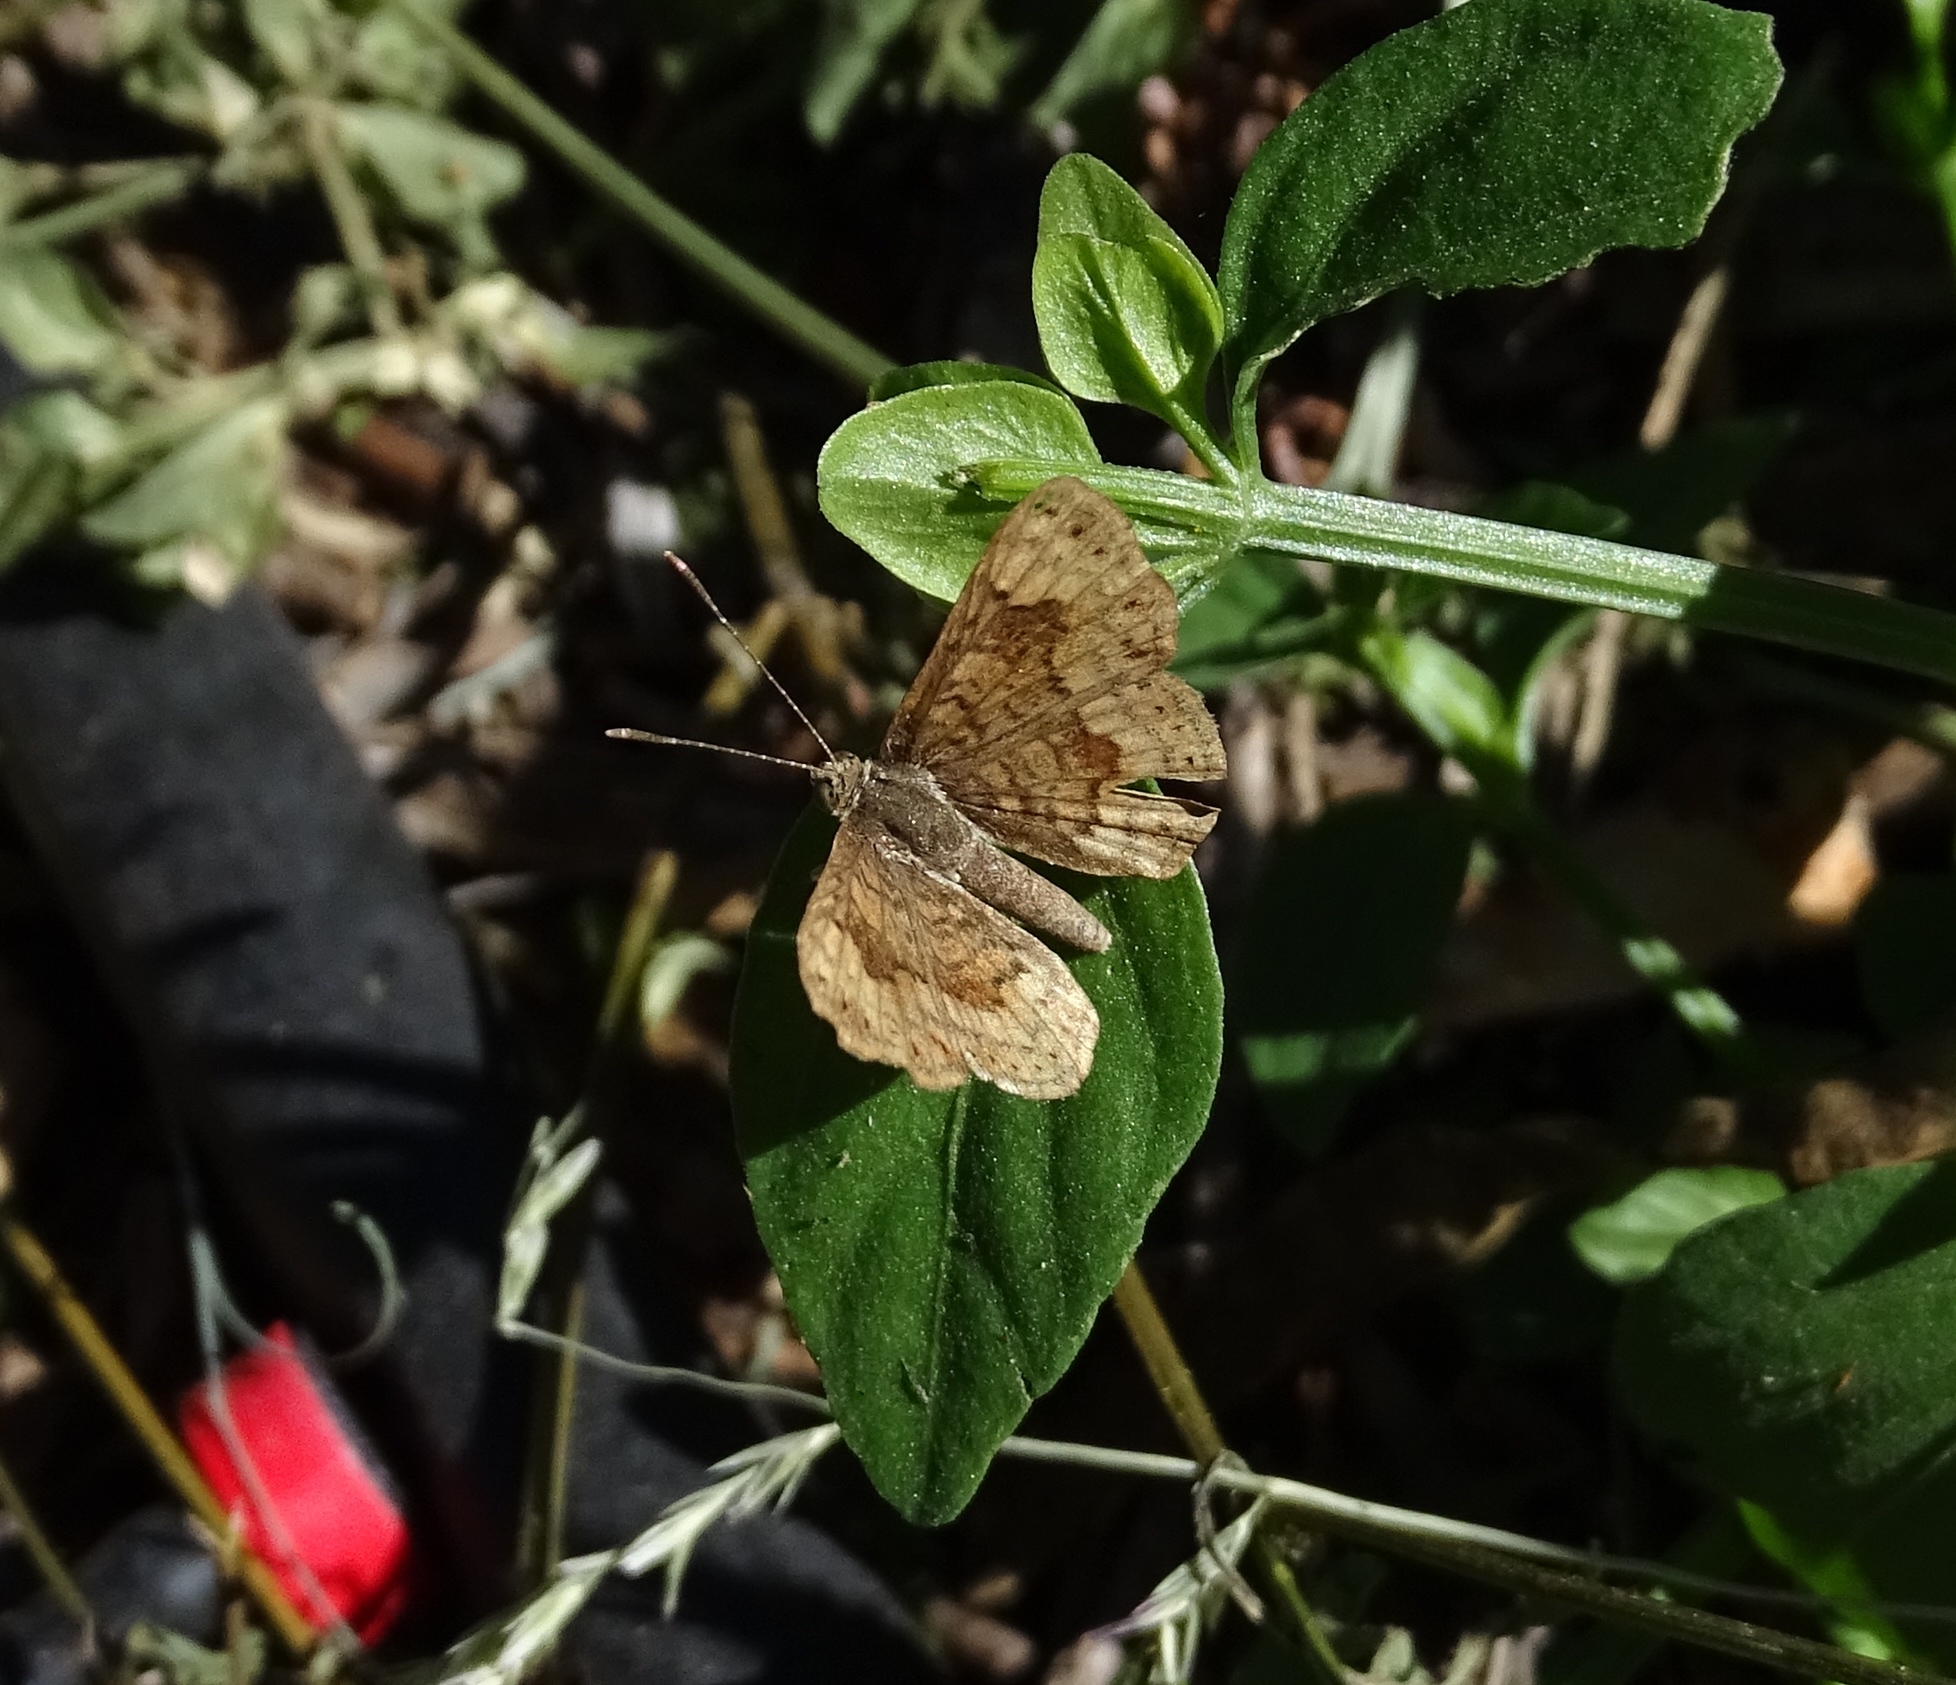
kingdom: Animalia
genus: Calephelis
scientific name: Calephelis nemesis
